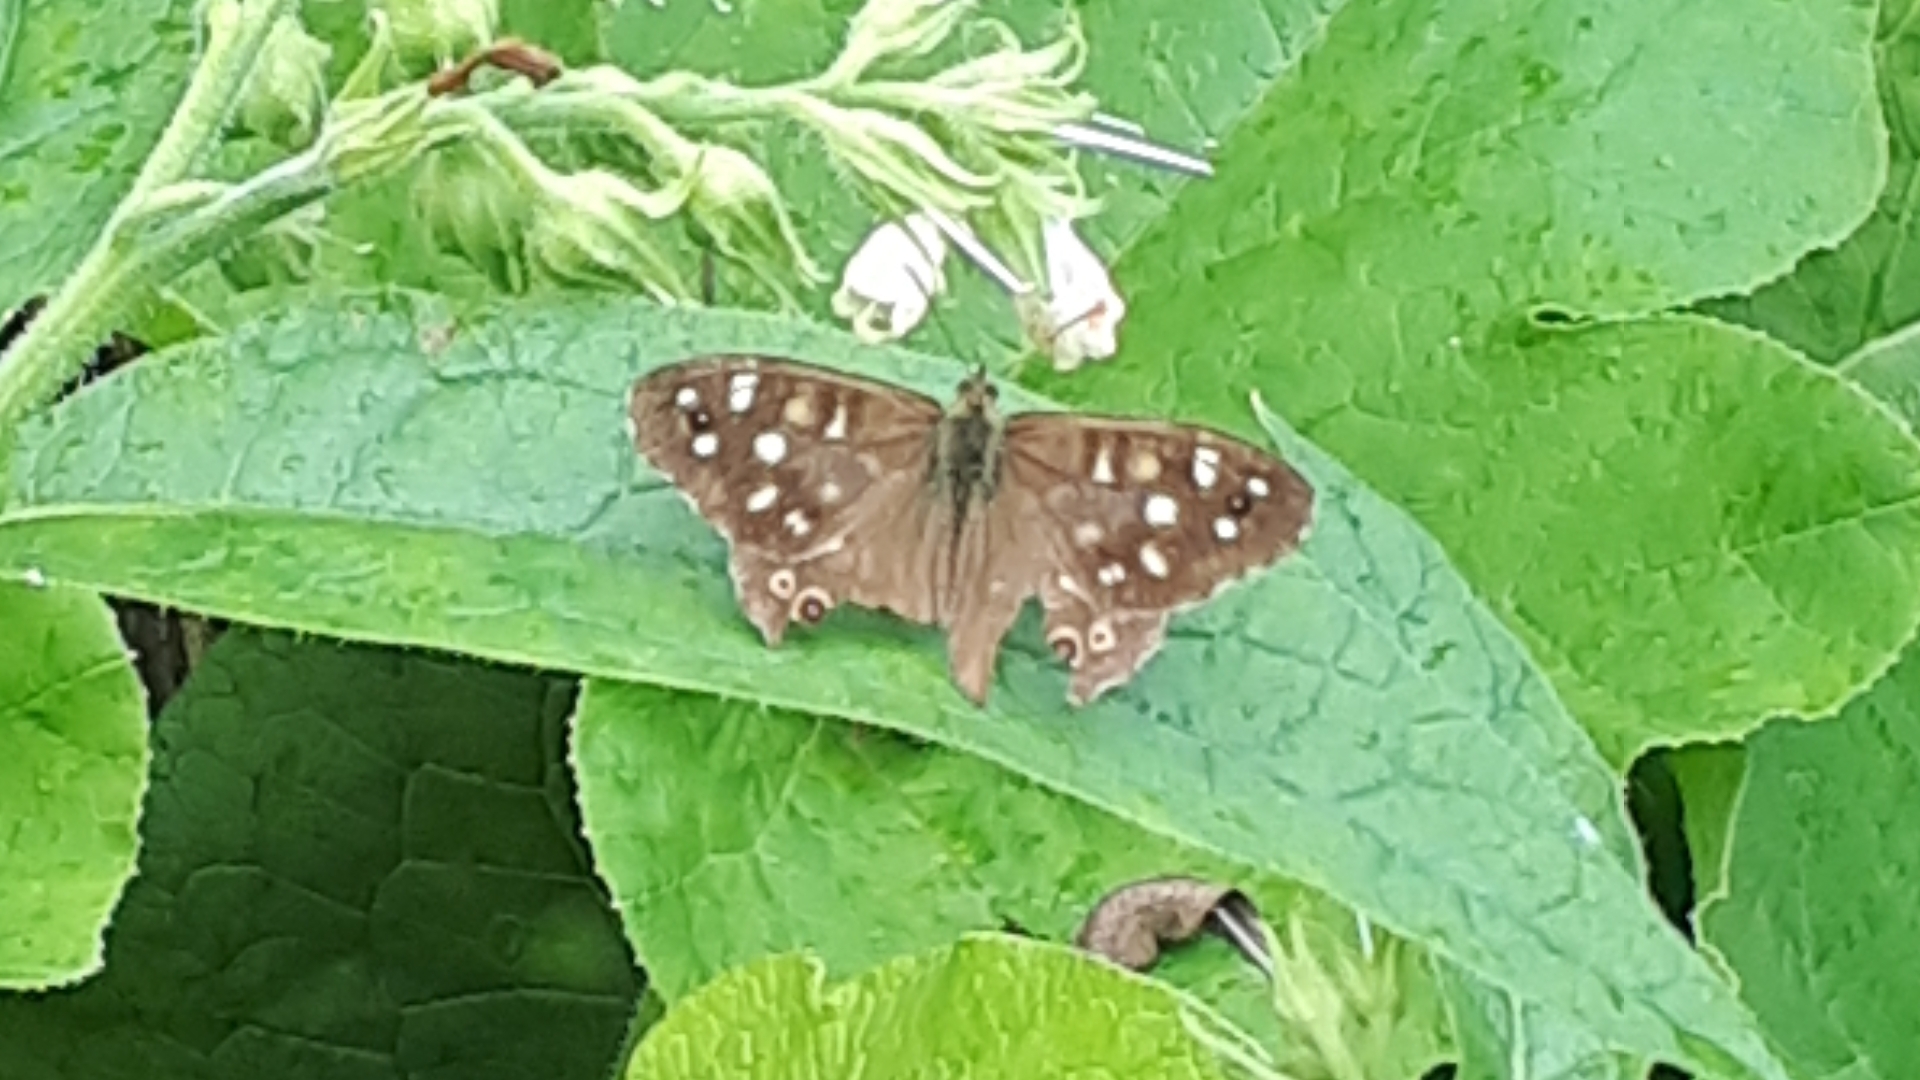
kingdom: Animalia
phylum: Arthropoda
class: Insecta
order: Lepidoptera
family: Nymphalidae
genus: Pararge
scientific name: Pararge aegeria
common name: Speckled wood
